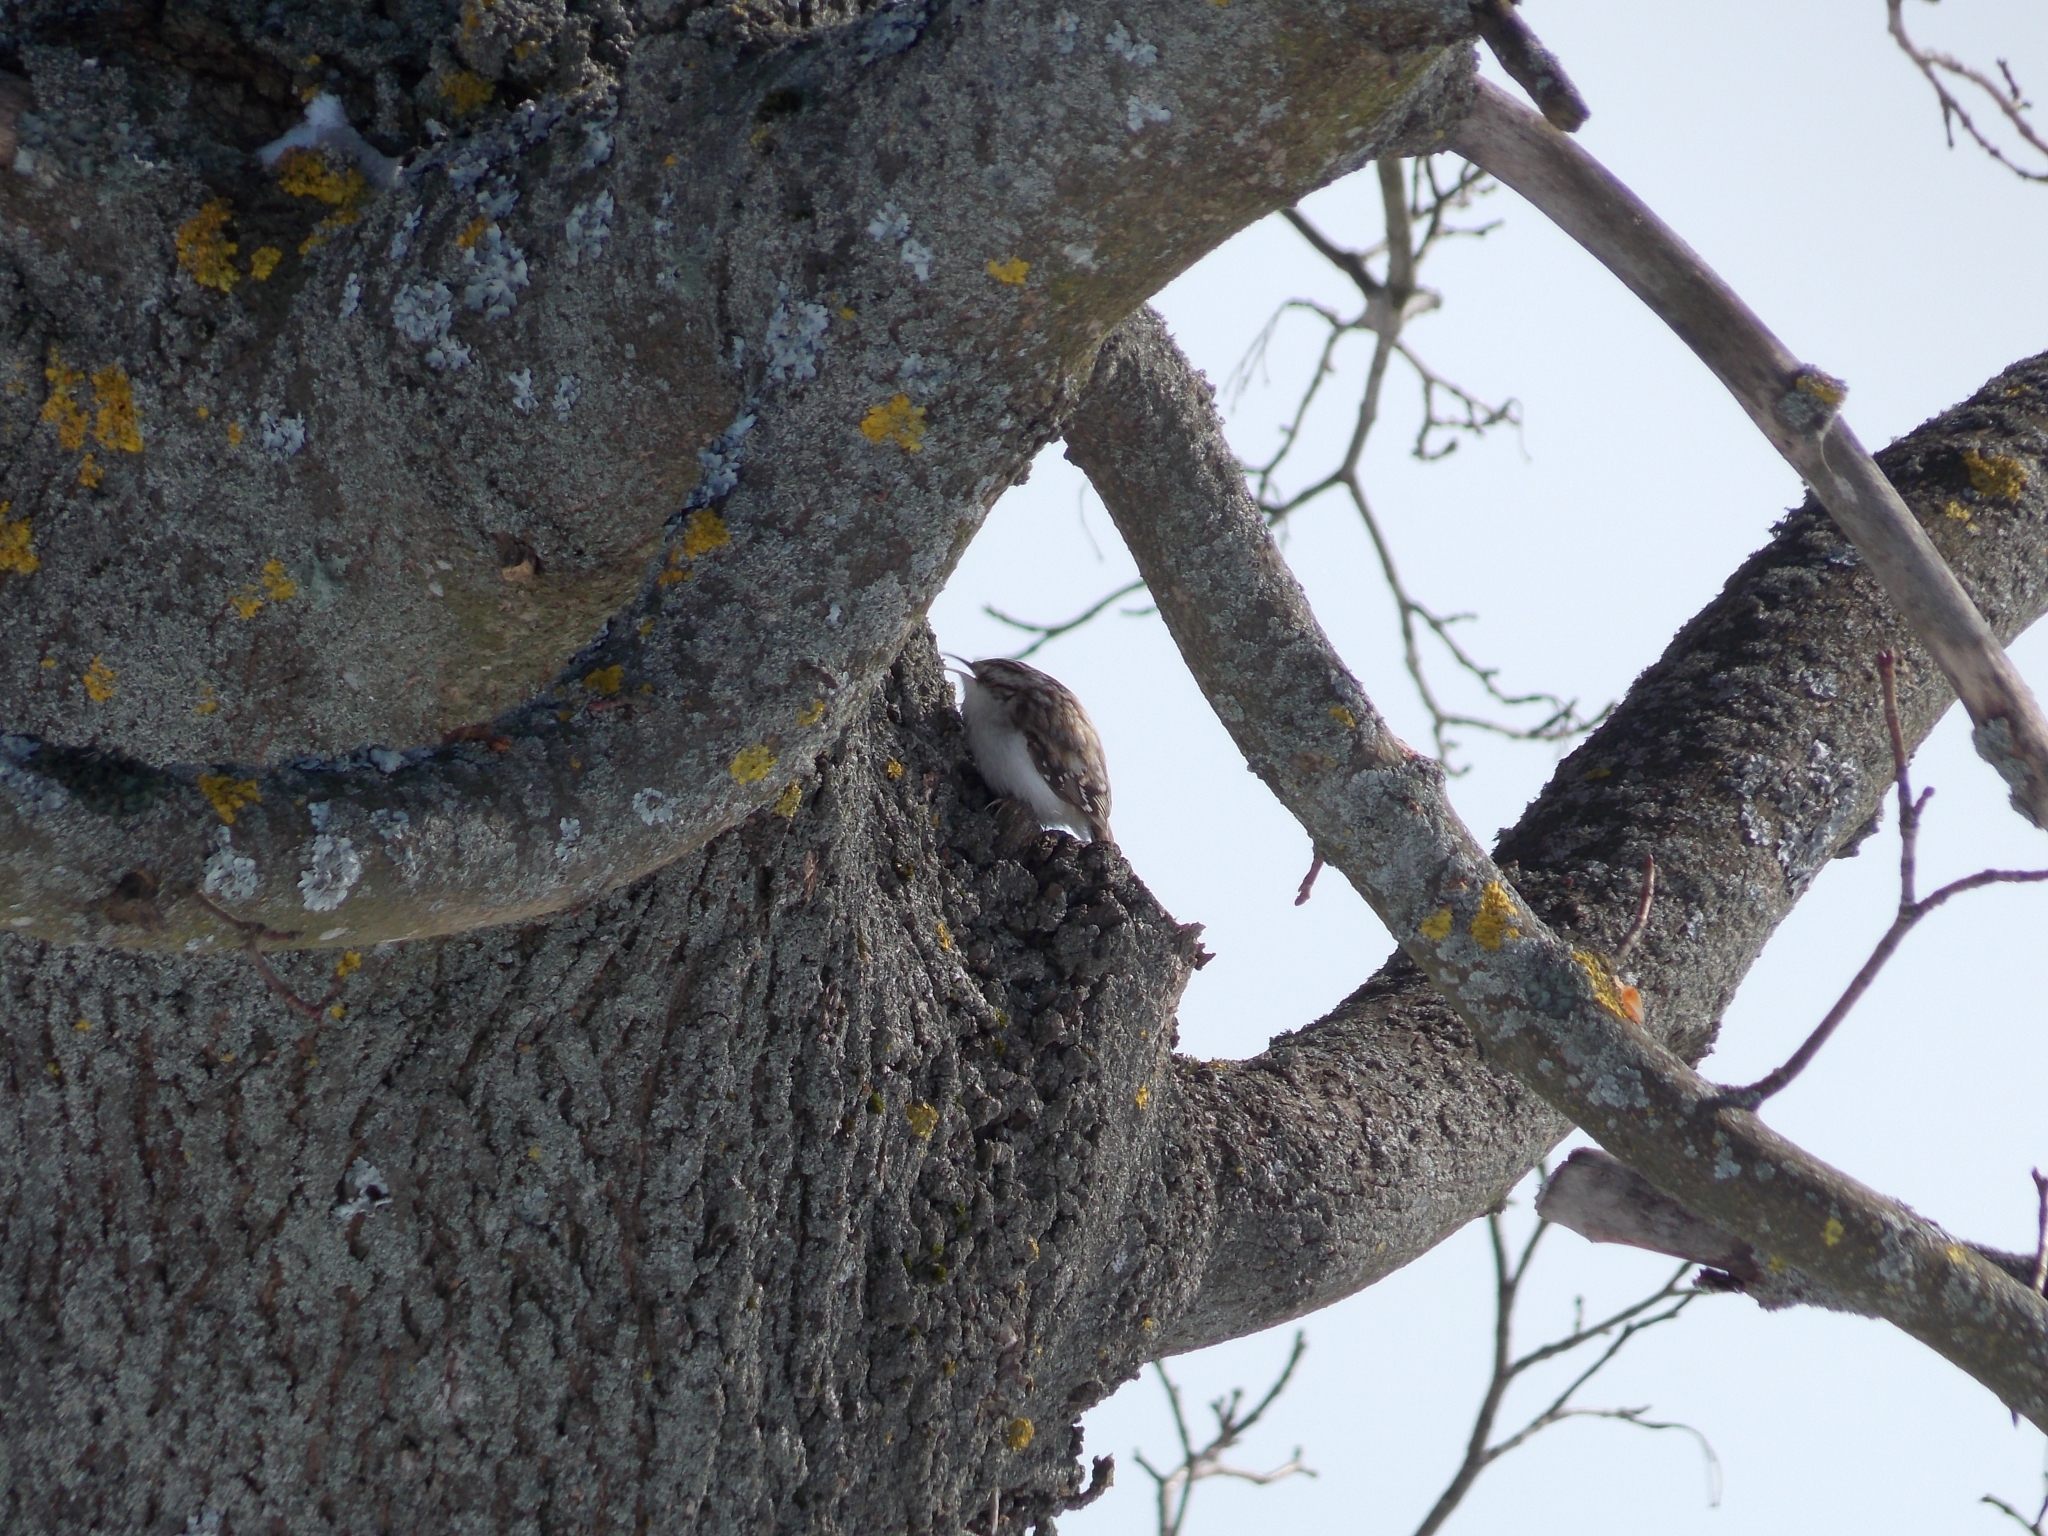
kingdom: Animalia
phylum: Chordata
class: Aves
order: Passeriformes
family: Certhiidae
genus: Certhia
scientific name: Certhia familiaris
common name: Eurasian treecreeper
